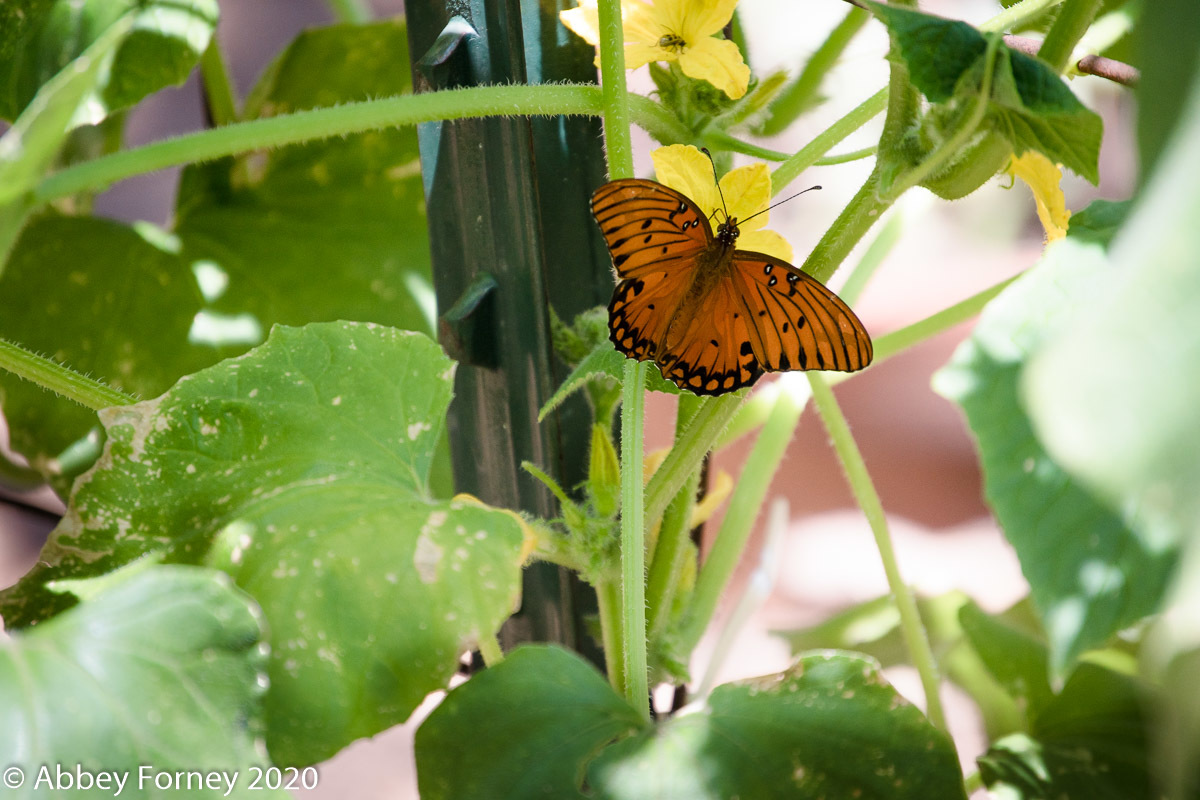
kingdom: Animalia
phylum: Arthropoda
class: Insecta
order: Lepidoptera
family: Nymphalidae
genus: Dione
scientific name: Dione vanillae
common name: Gulf fritillary
